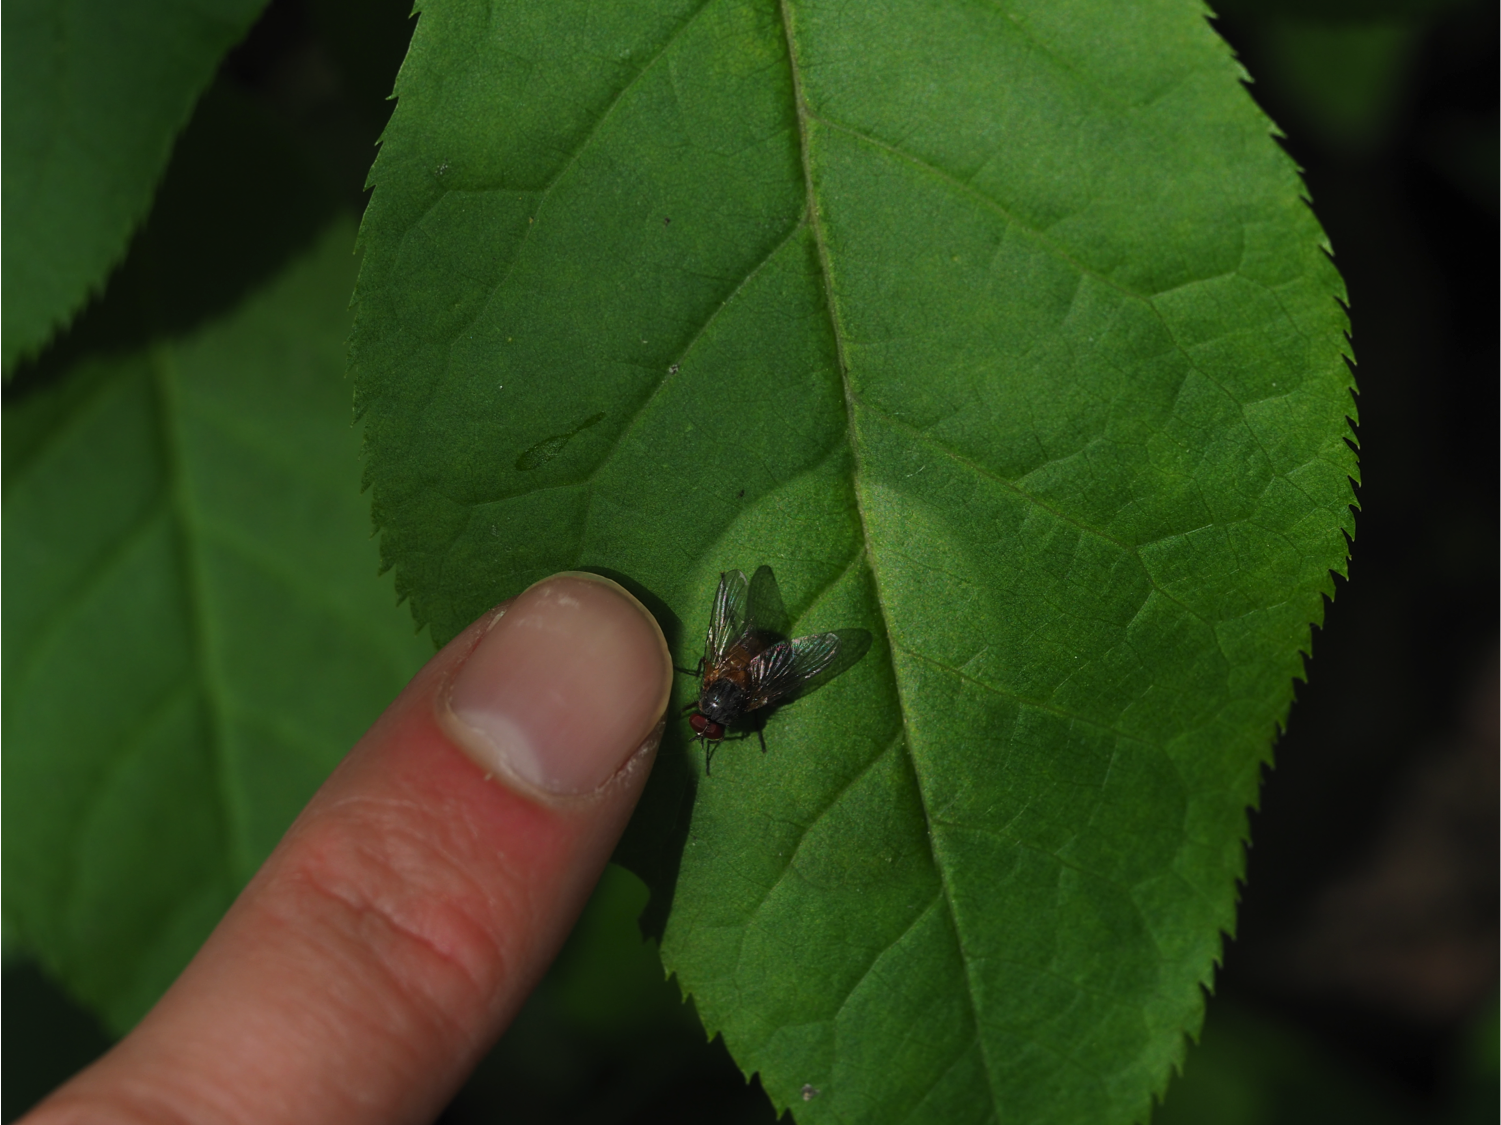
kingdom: Animalia
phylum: Arthropoda
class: Insecta
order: Diptera
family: Muscidae
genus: Phaonia
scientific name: Phaonia subventa
